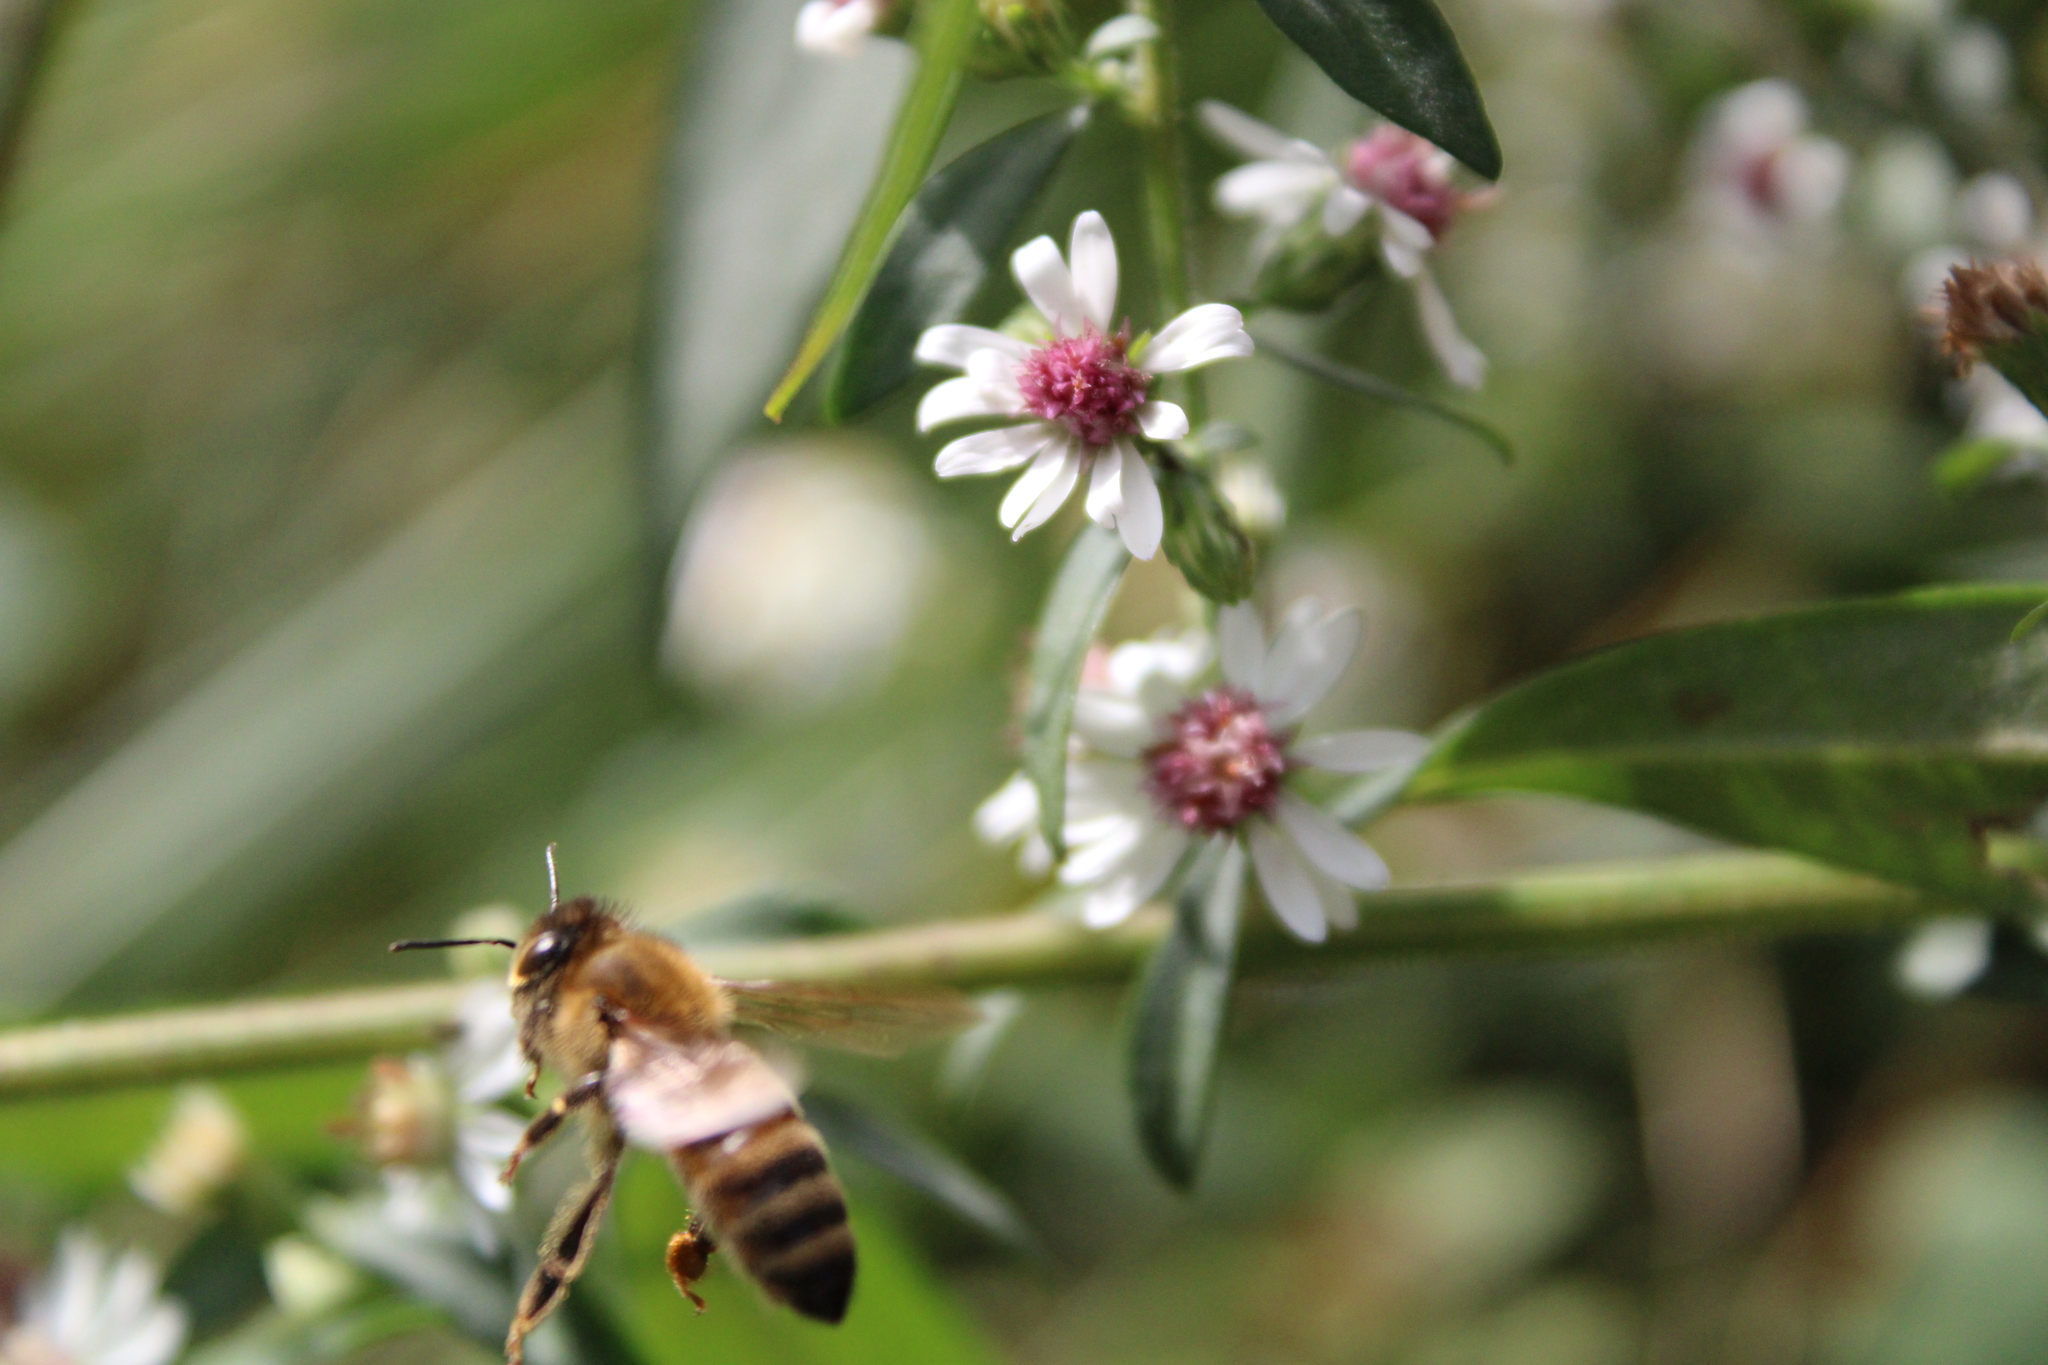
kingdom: Animalia
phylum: Arthropoda
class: Insecta
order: Hymenoptera
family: Apidae
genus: Apis
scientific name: Apis mellifera
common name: Honey bee
